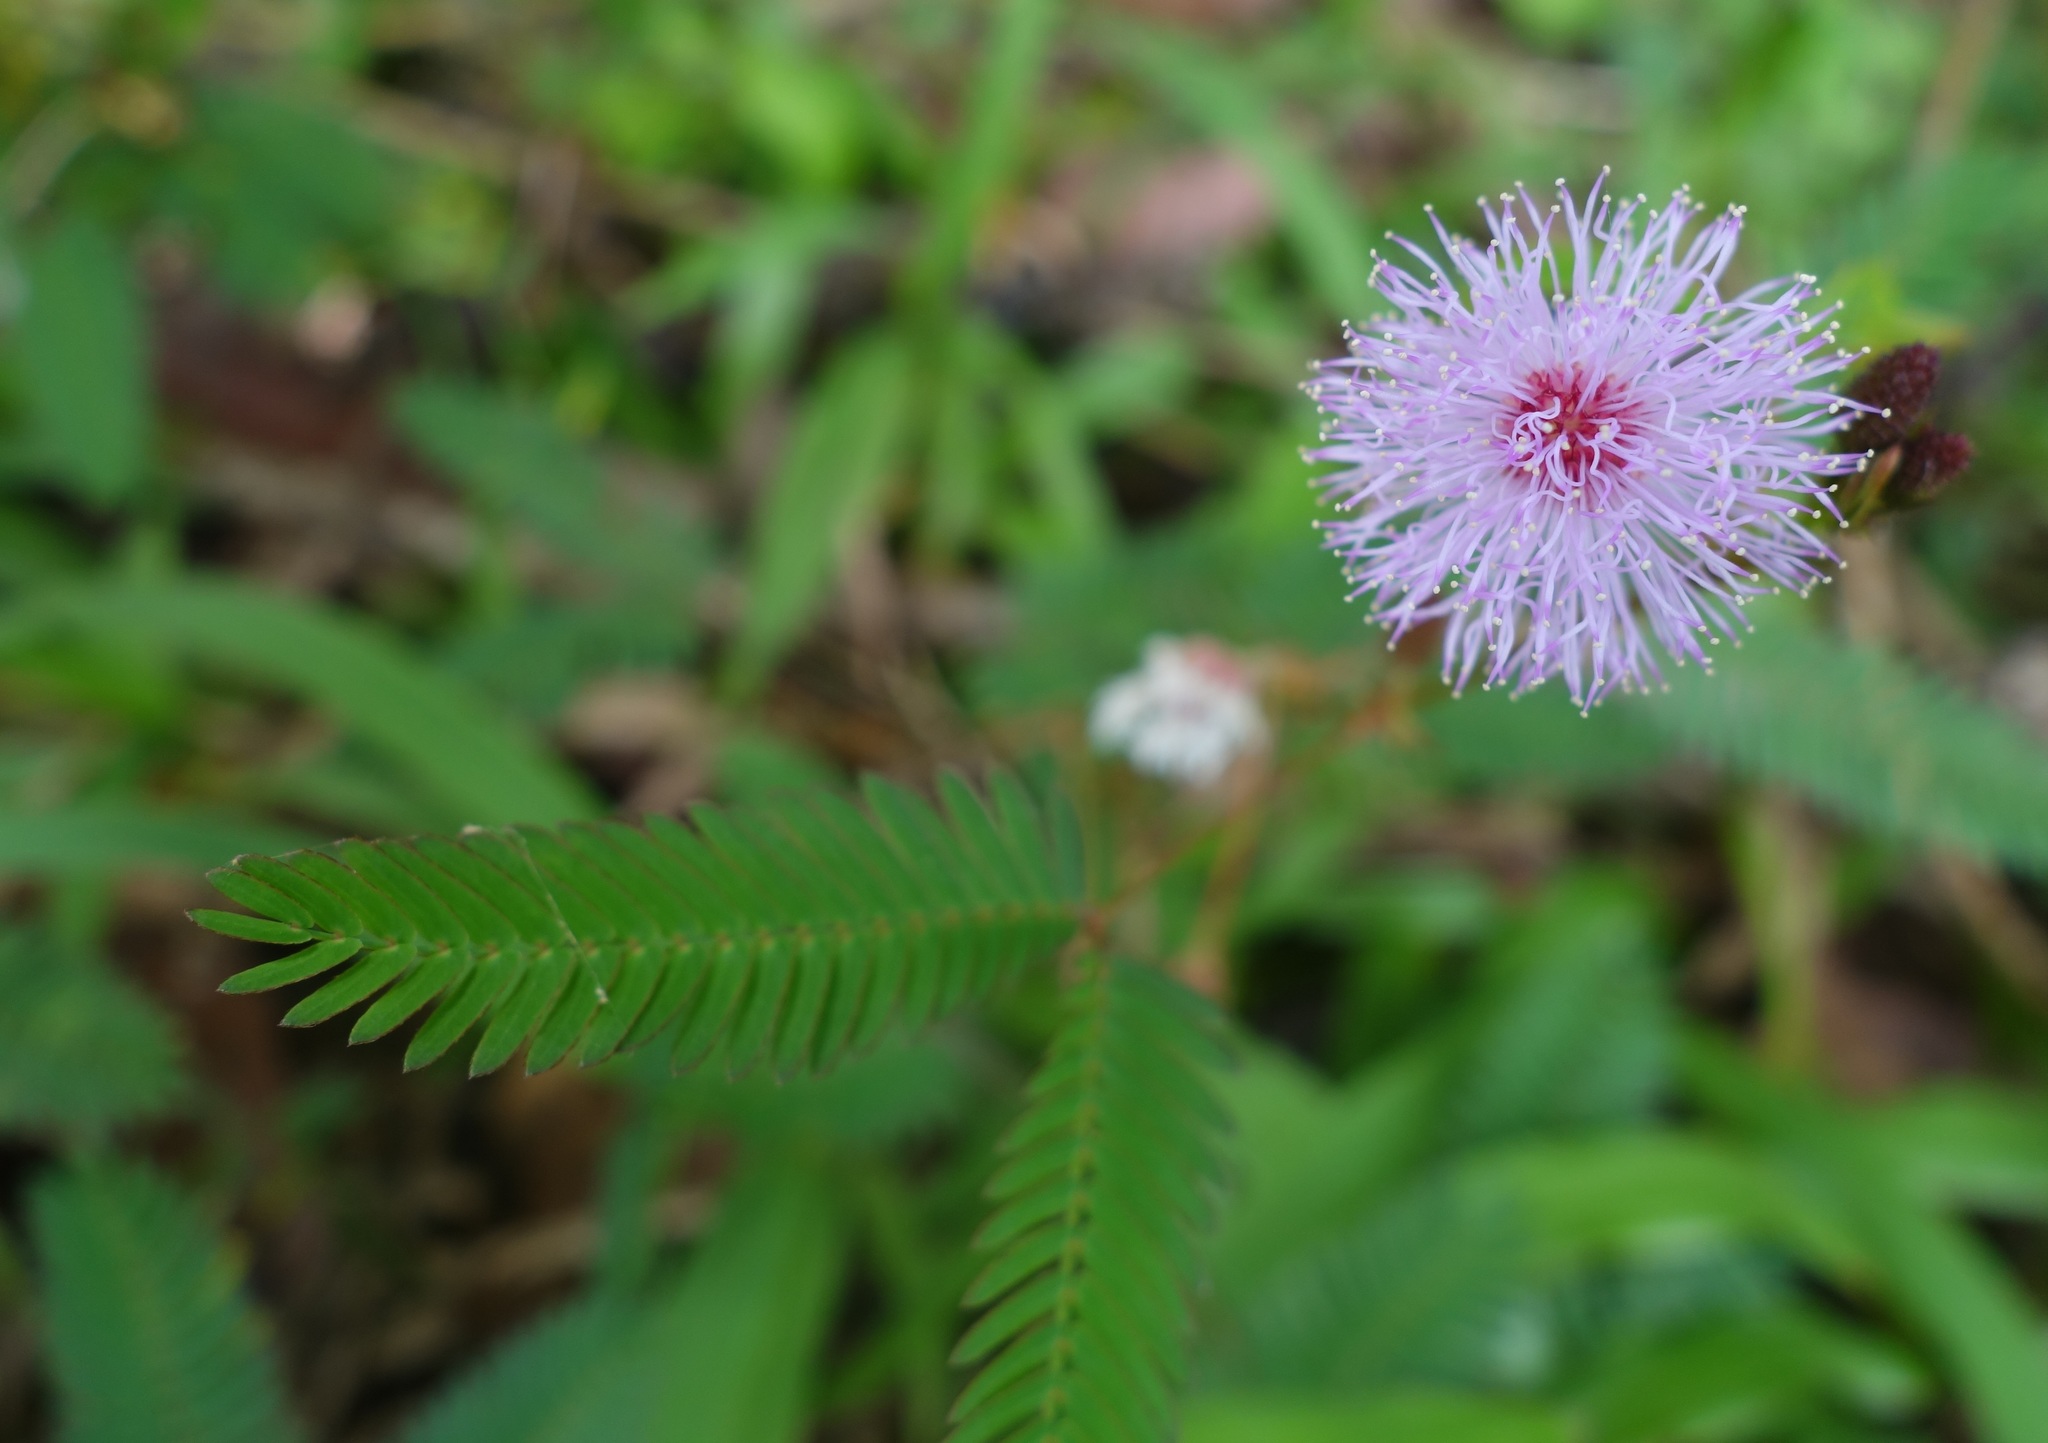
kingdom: Plantae
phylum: Tracheophyta
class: Magnoliopsida
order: Fabales
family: Fabaceae
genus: Mimosa
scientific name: Mimosa pudica
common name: Sensitive plant
